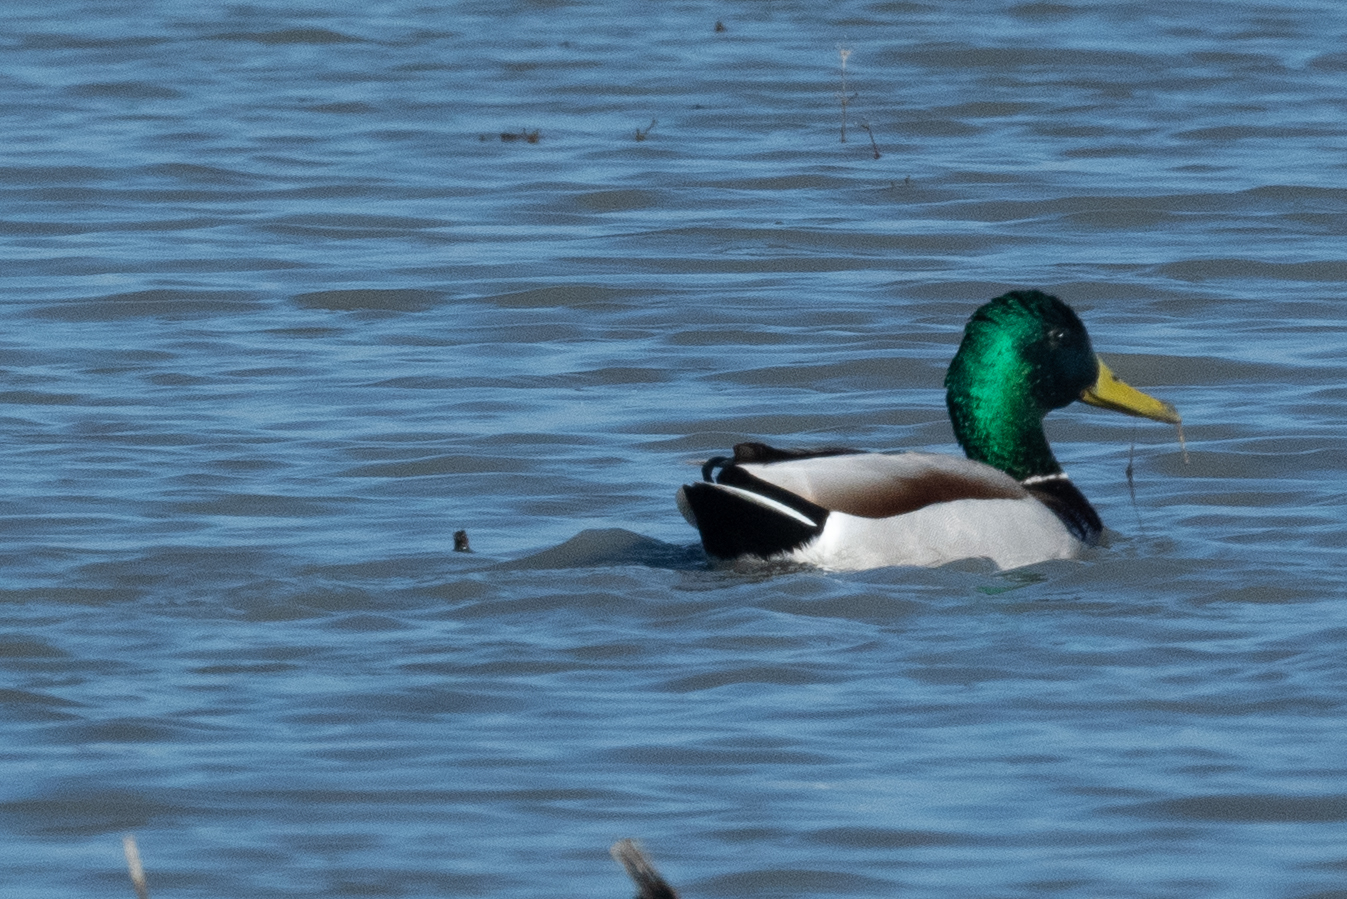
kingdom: Animalia
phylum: Chordata
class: Aves
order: Anseriformes
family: Anatidae
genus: Anas
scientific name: Anas platyrhynchos
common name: Mallard
